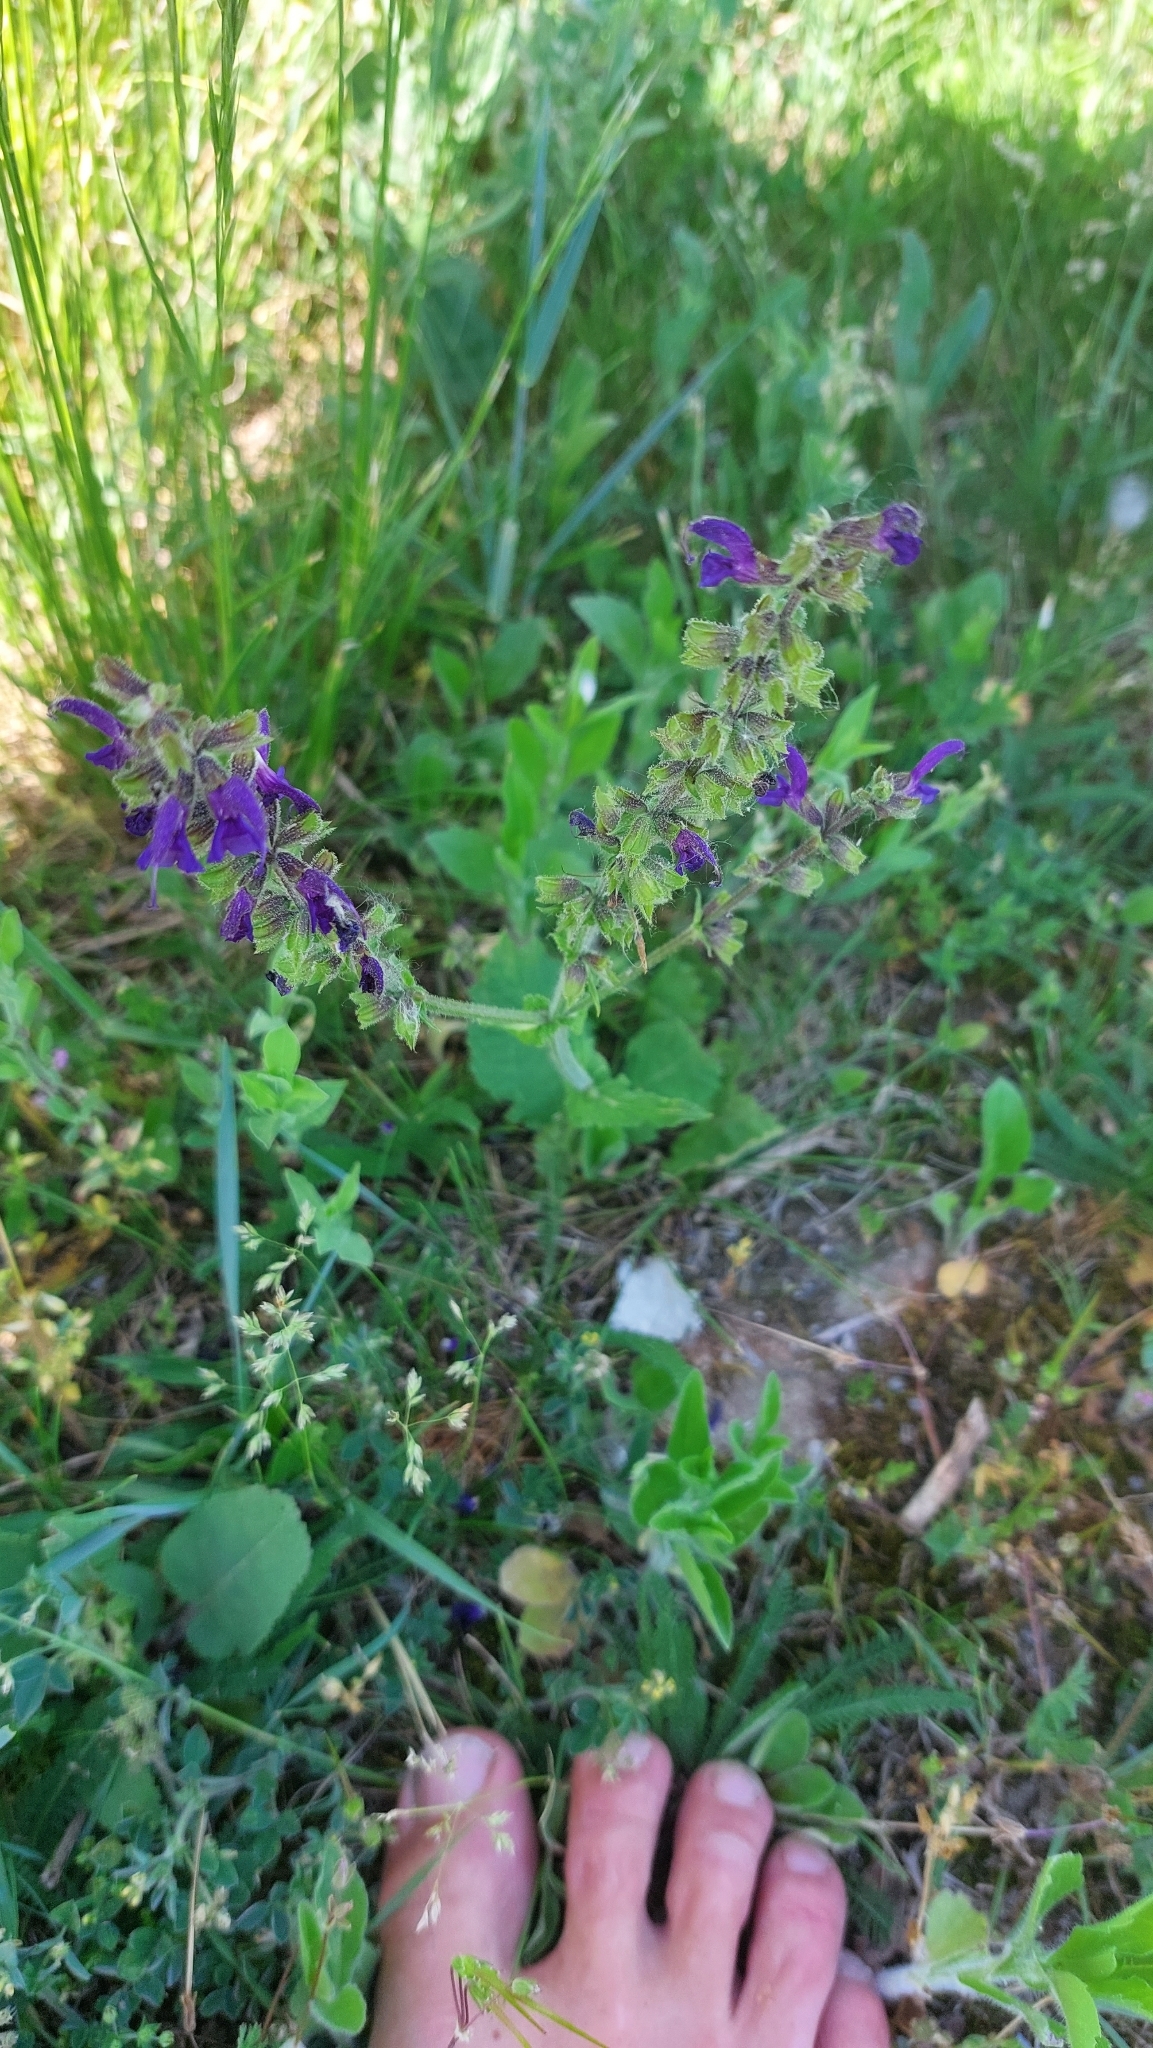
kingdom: Plantae
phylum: Tracheophyta
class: Magnoliopsida
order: Lamiales
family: Lamiaceae
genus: Salvia
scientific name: Salvia pratensis
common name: Meadow sage
